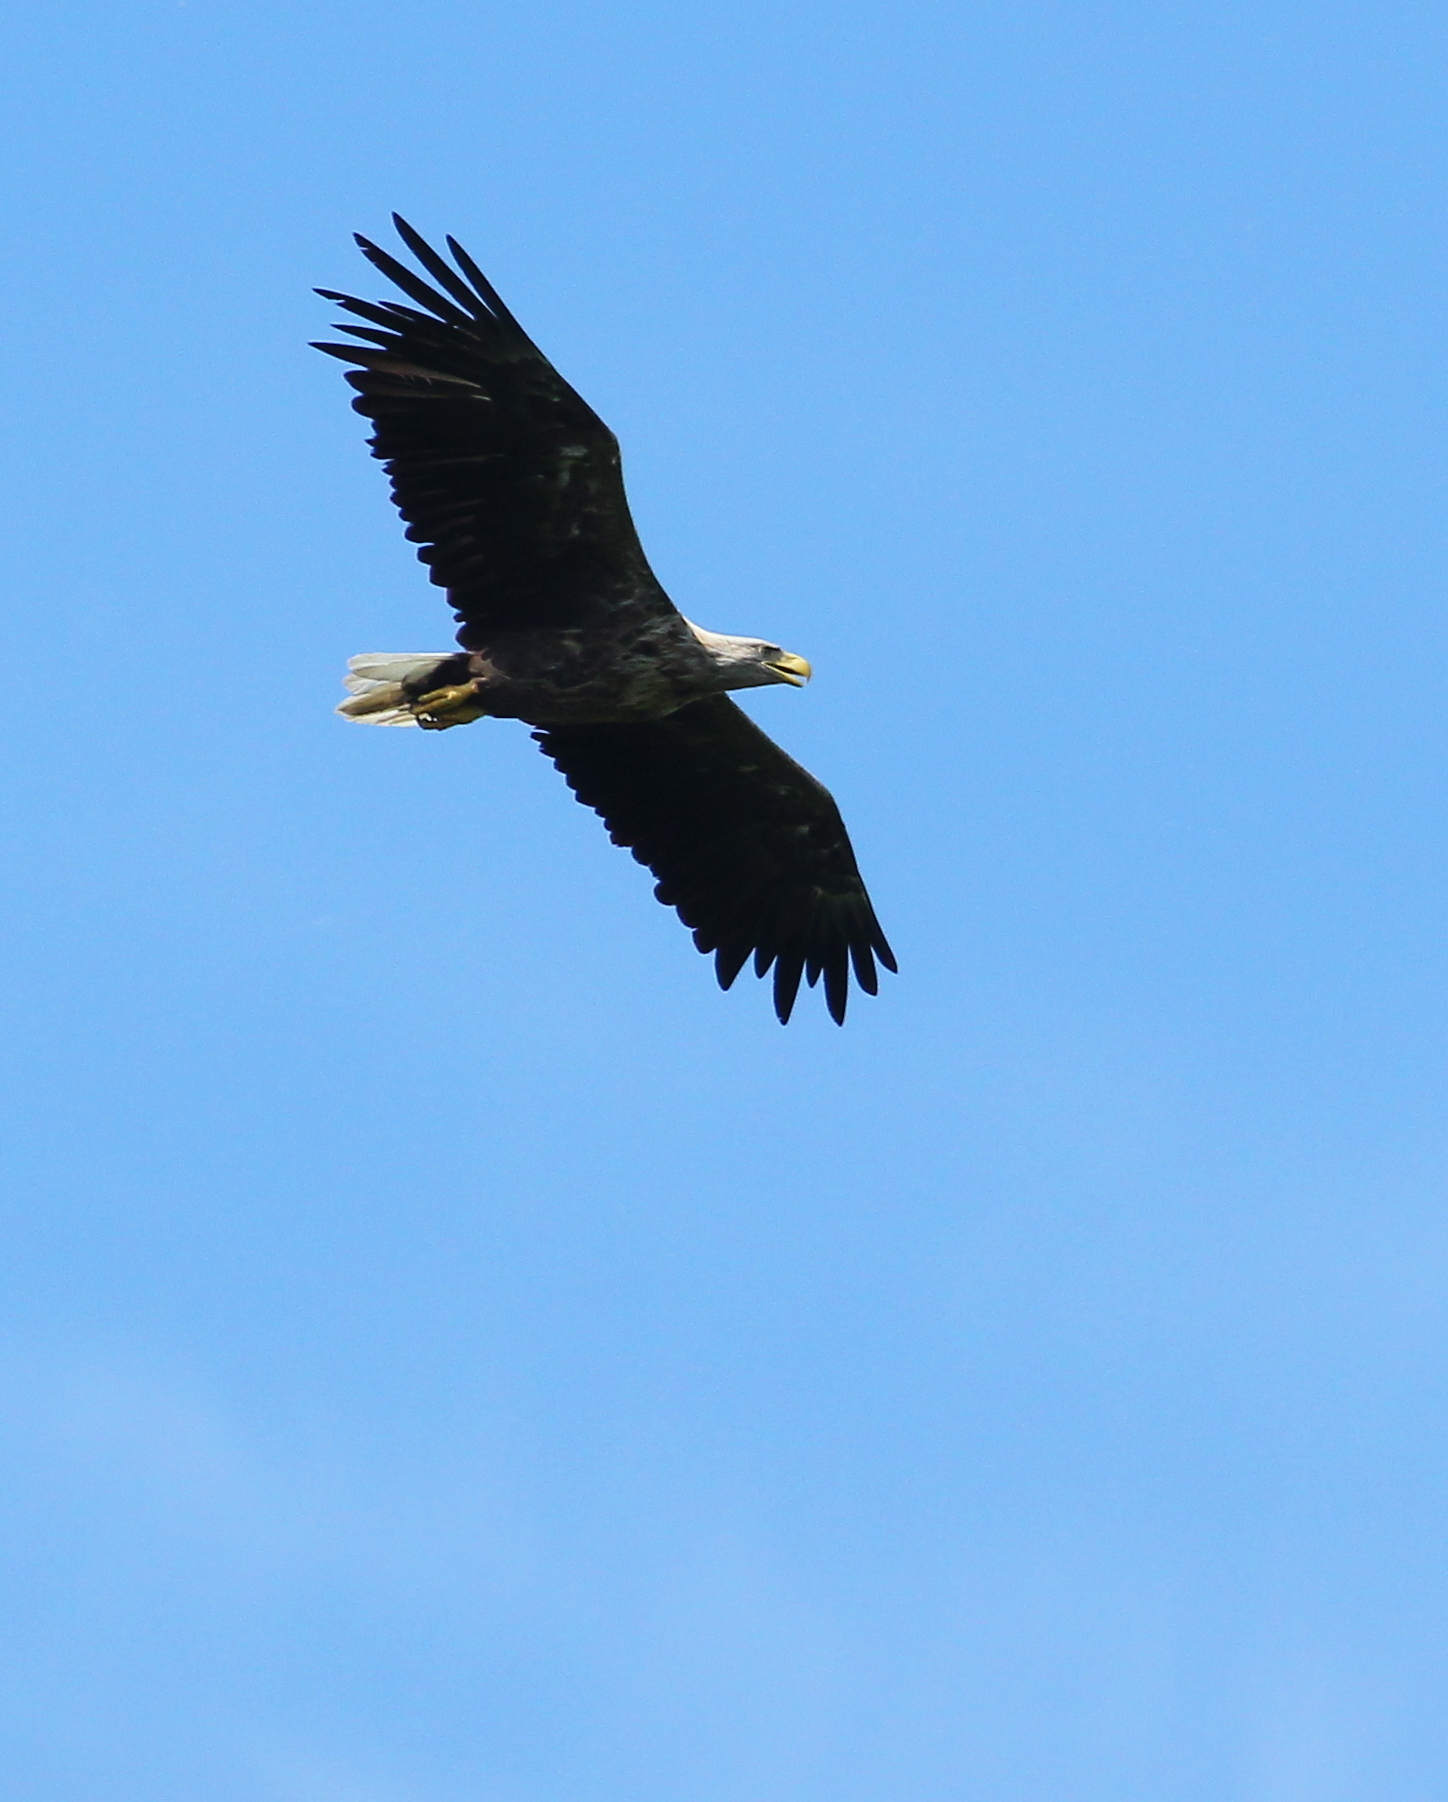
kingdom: Animalia
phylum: Chordata
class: Aves
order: Accipitriformes
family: Accipitridae
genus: Haliaeetus
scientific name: Haliaeetus albicilla
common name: White-tailed eagle
